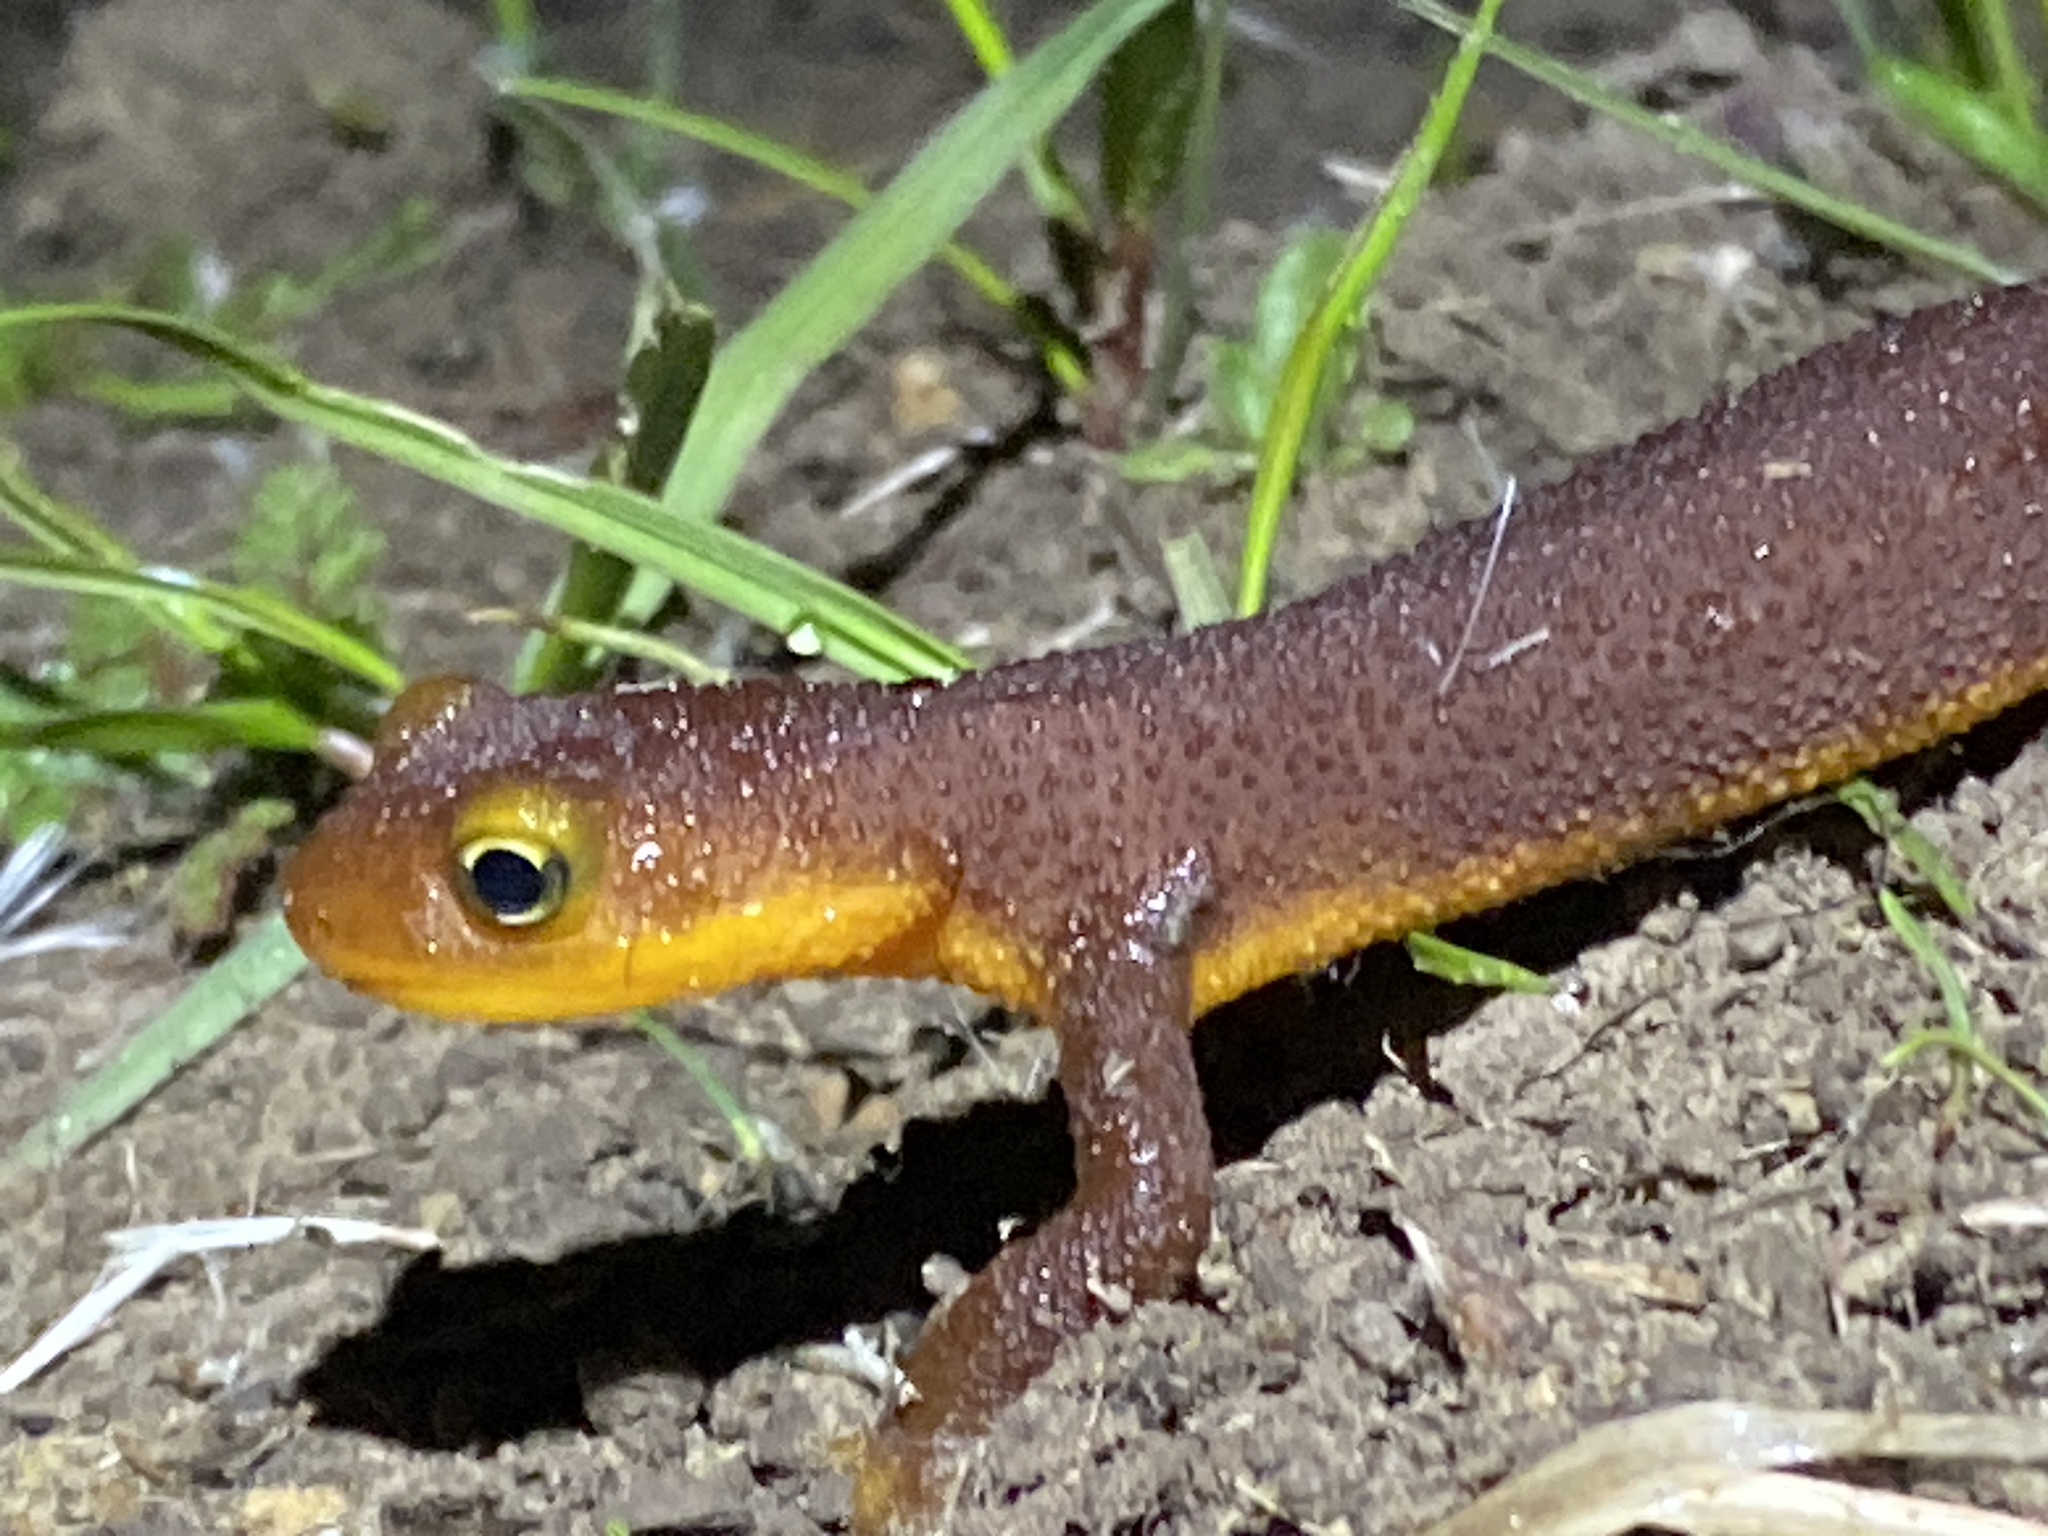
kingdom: Animalia
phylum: Chordata
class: Amphibia
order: Caudata
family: Salamandridae
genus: Taricha
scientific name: Taricha torosa
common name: California newt
